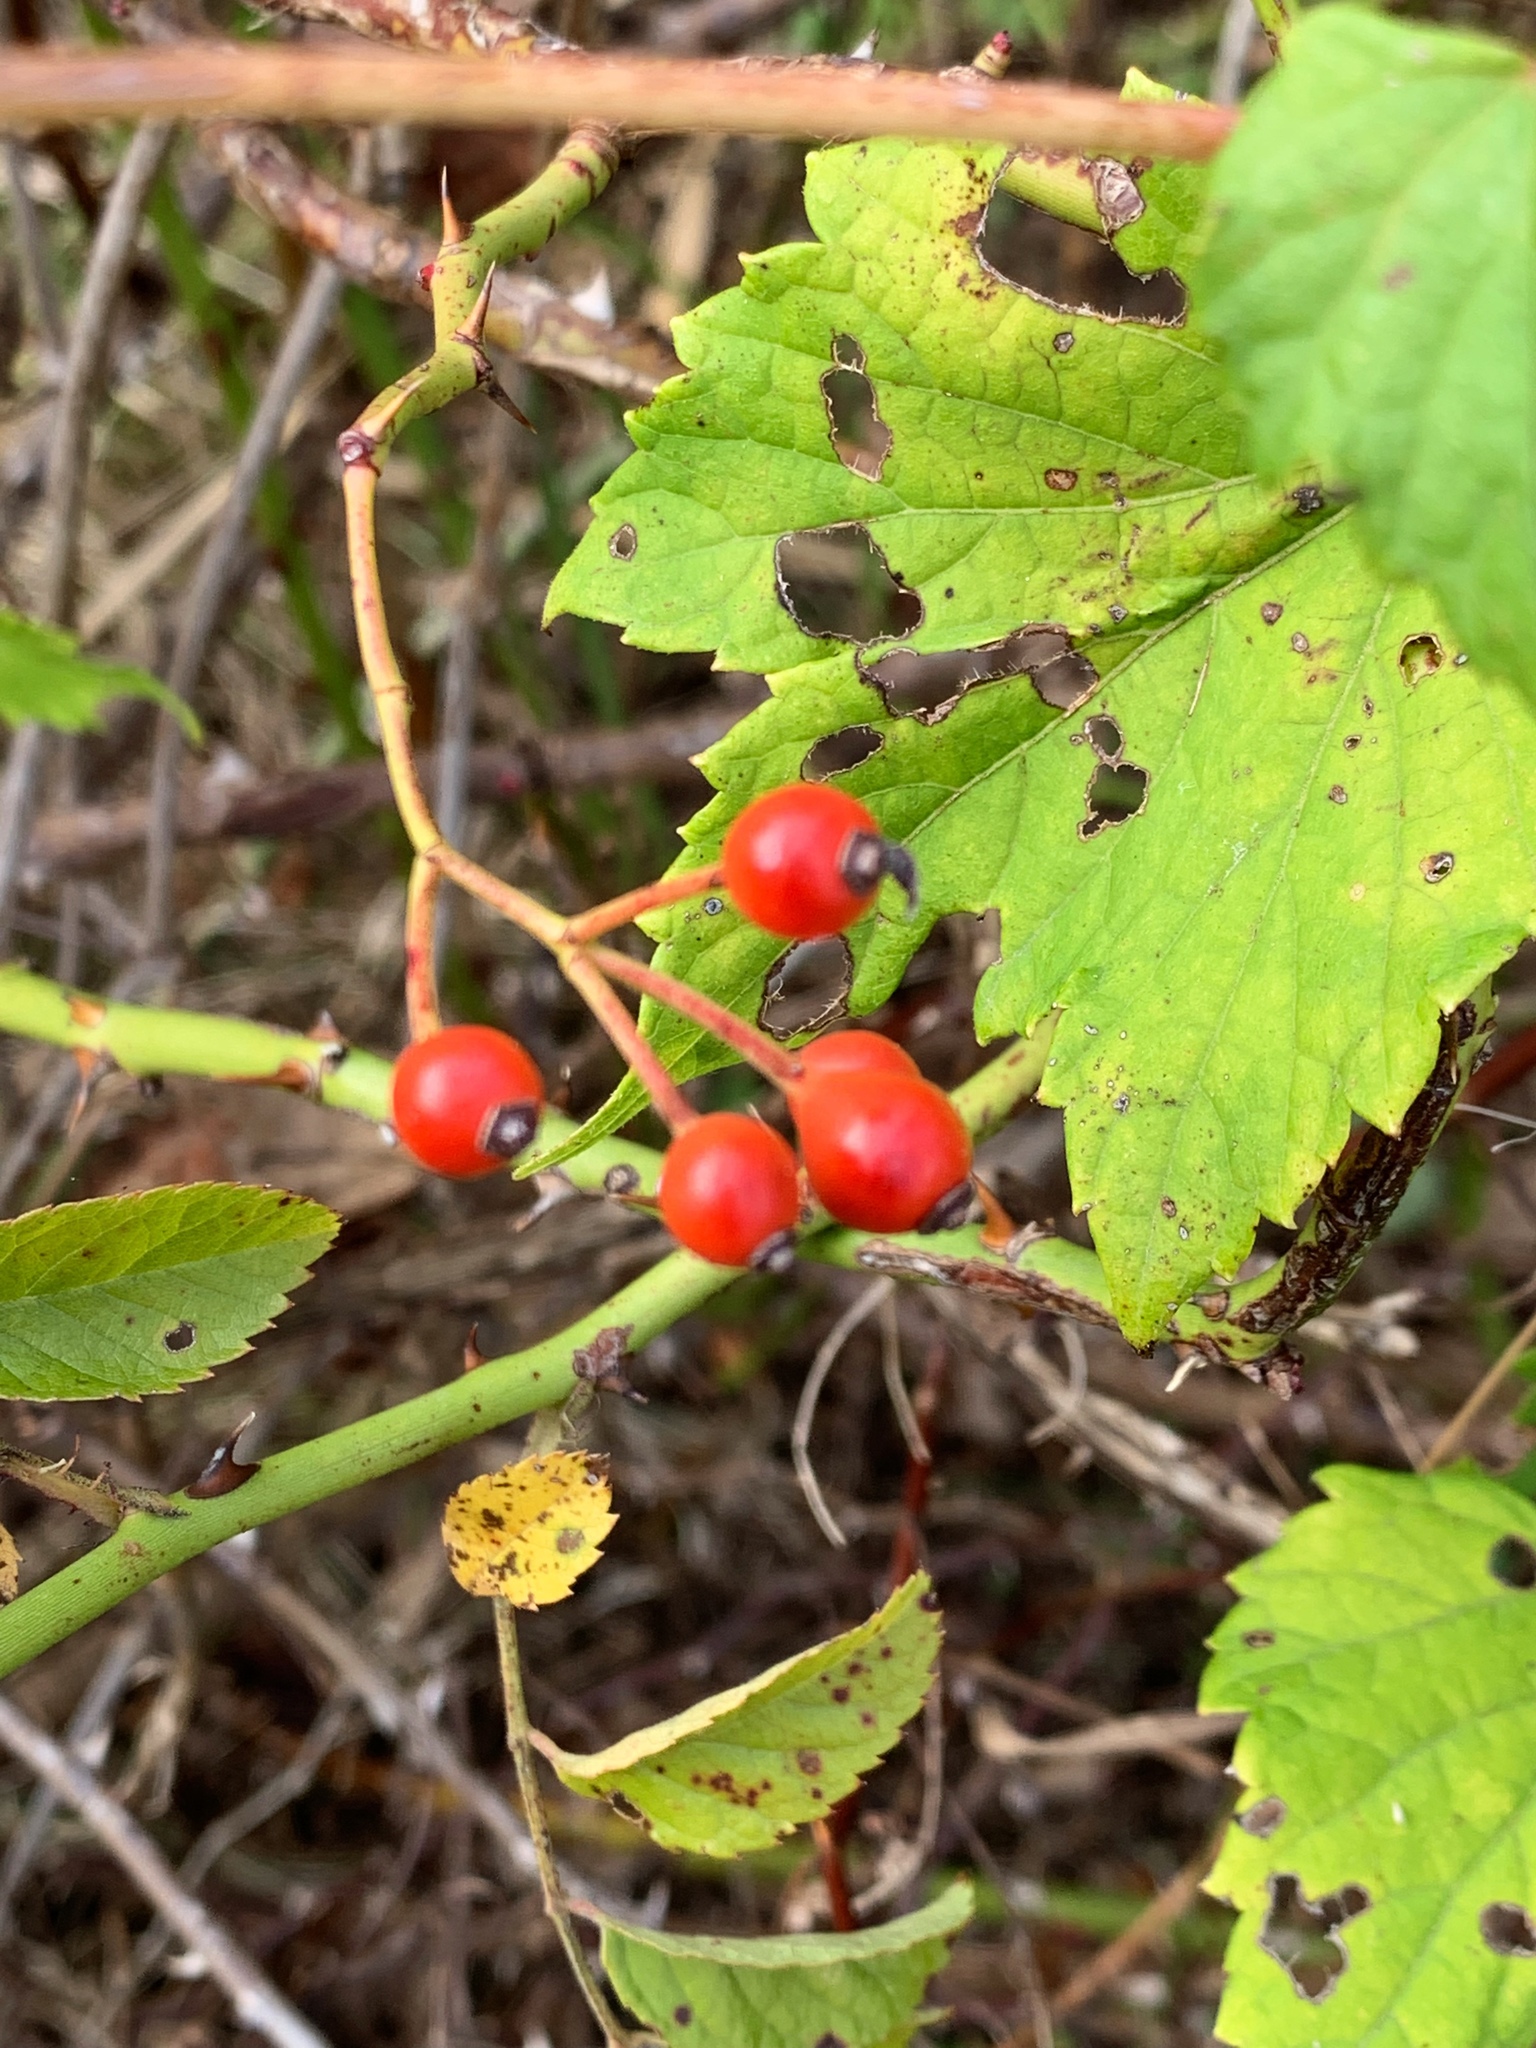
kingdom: Plantae
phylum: Tracheophyta
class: Magnoliopsida
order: Rosales
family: Rosaceae
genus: Rosa
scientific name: Rosa multiflora
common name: Multiflora rose
